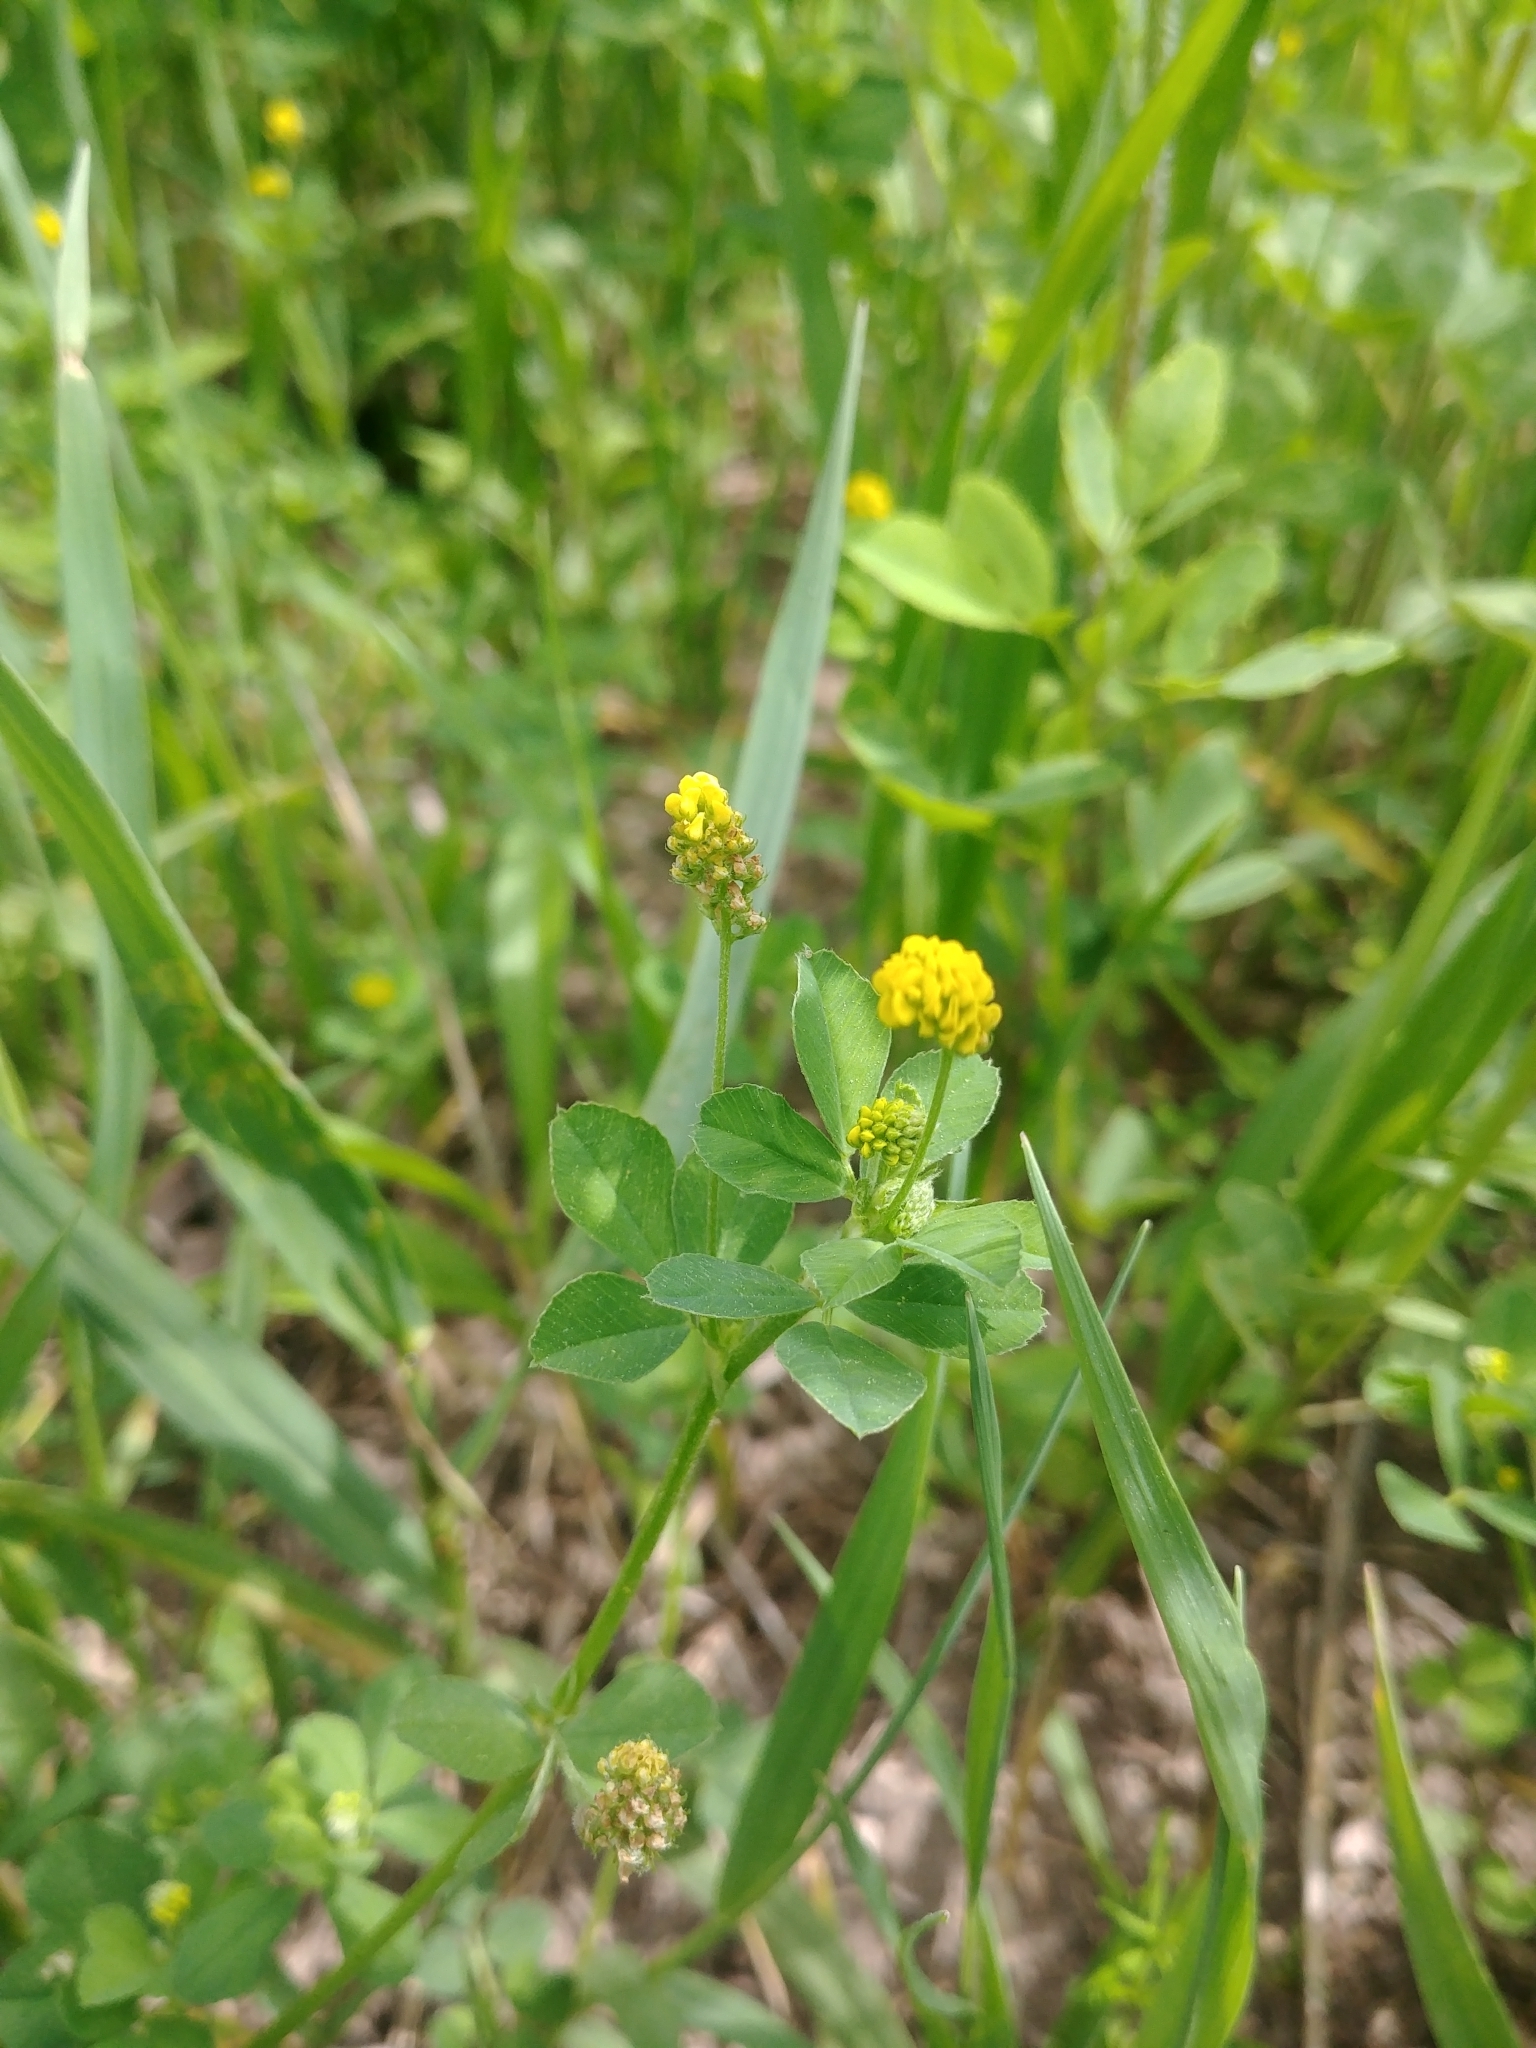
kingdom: Plantae
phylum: Tracheophyta
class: Magnoliopsida
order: Fabales
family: Fabaceae
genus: Medicago
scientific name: Medicago lupulina
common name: Black medick
